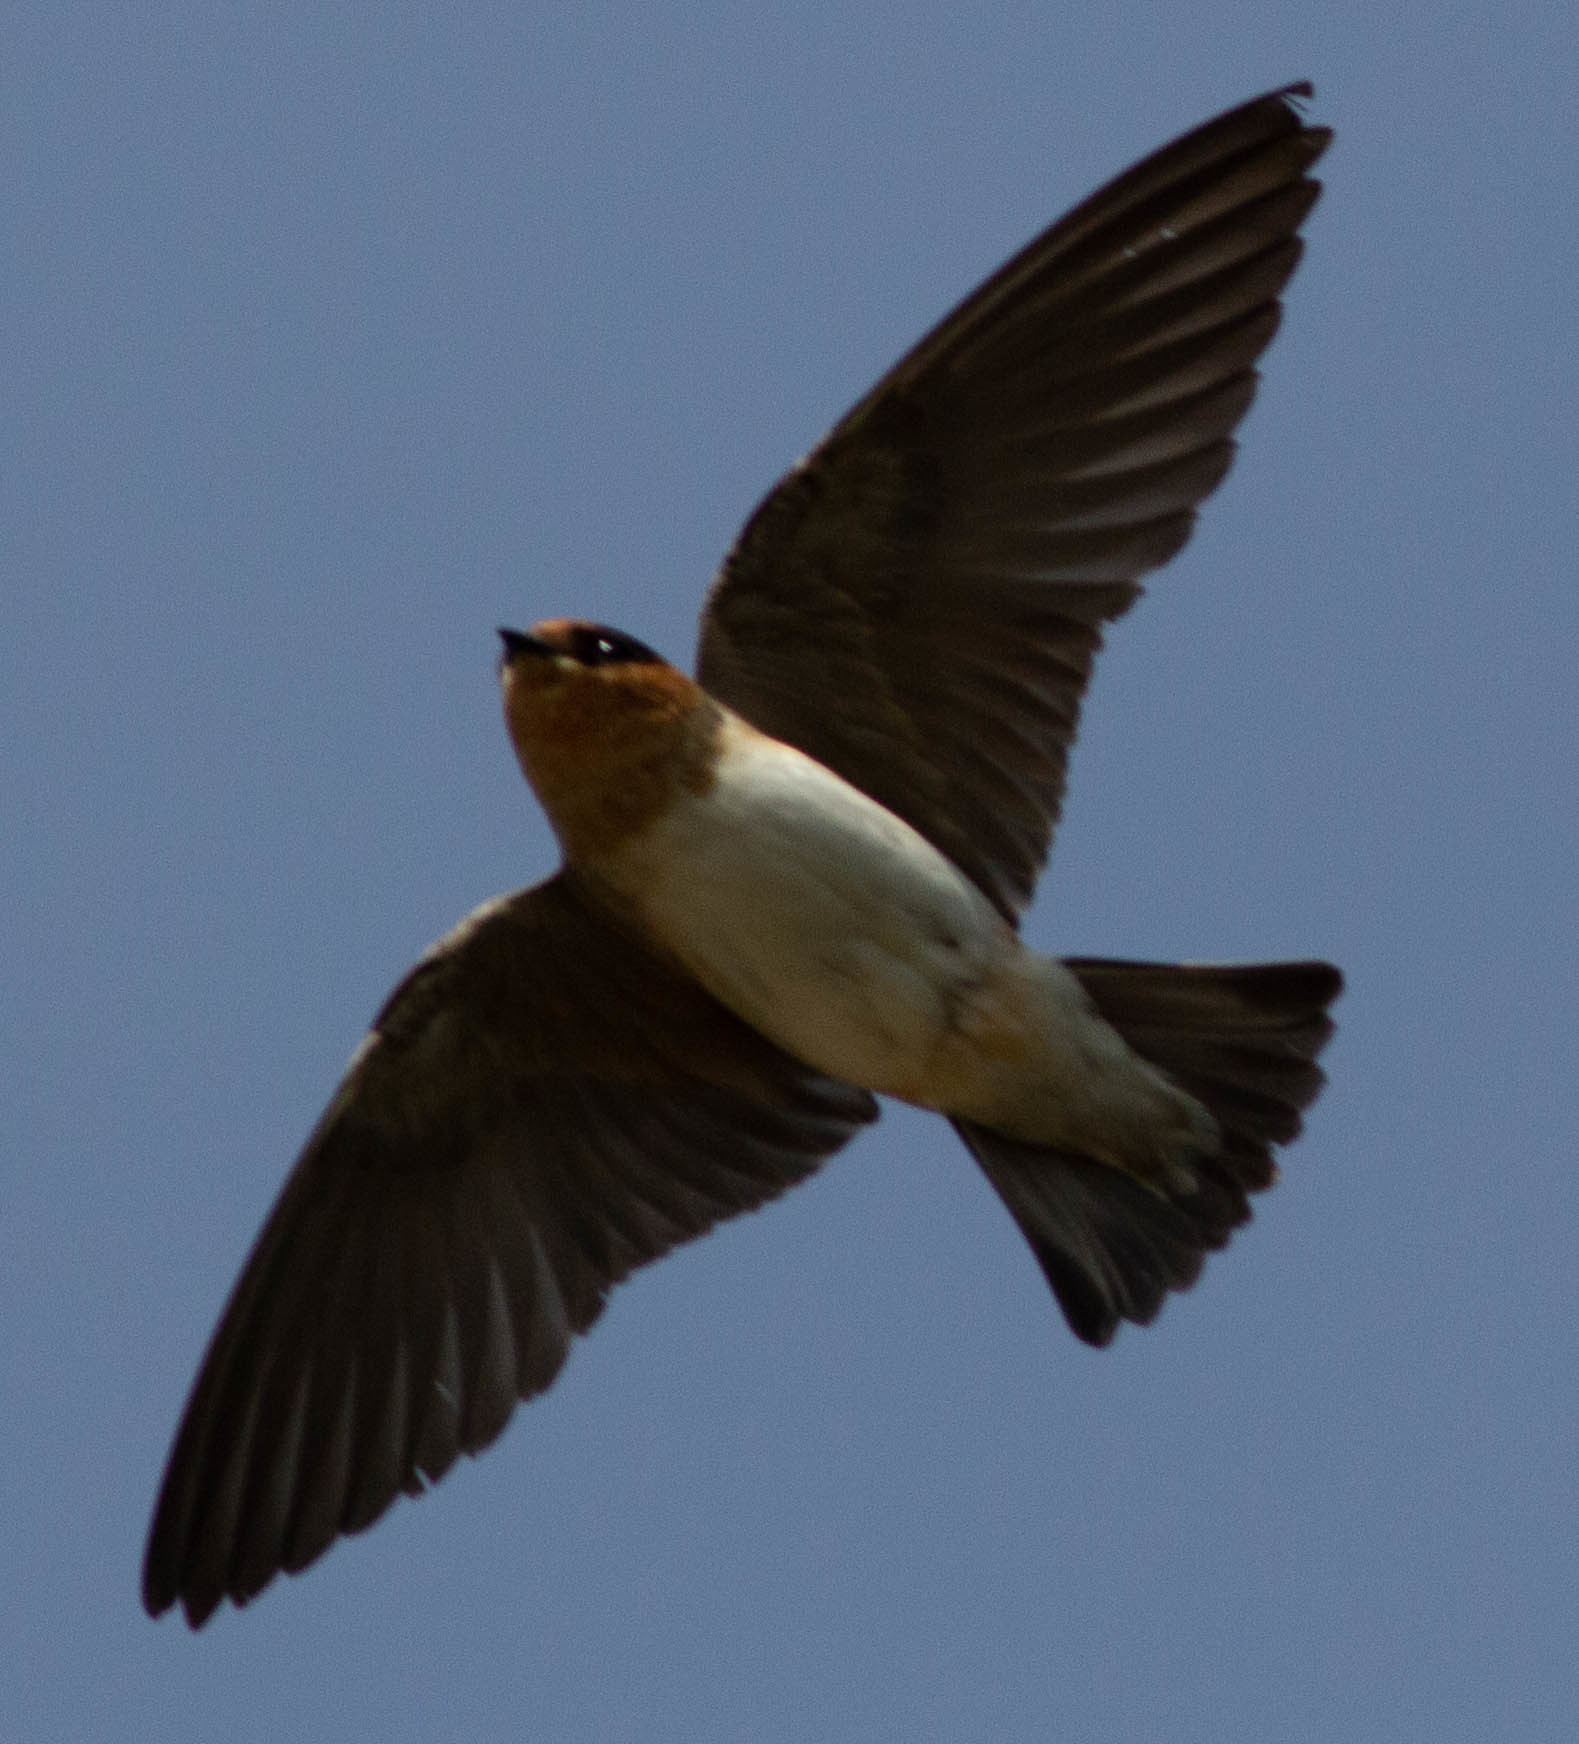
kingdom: Animalia
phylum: Chordata
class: Aves
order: Passeriformes
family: Hirundinidae
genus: Petrochelidon
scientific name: Petrochelidon fulva
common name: Cave swallow
